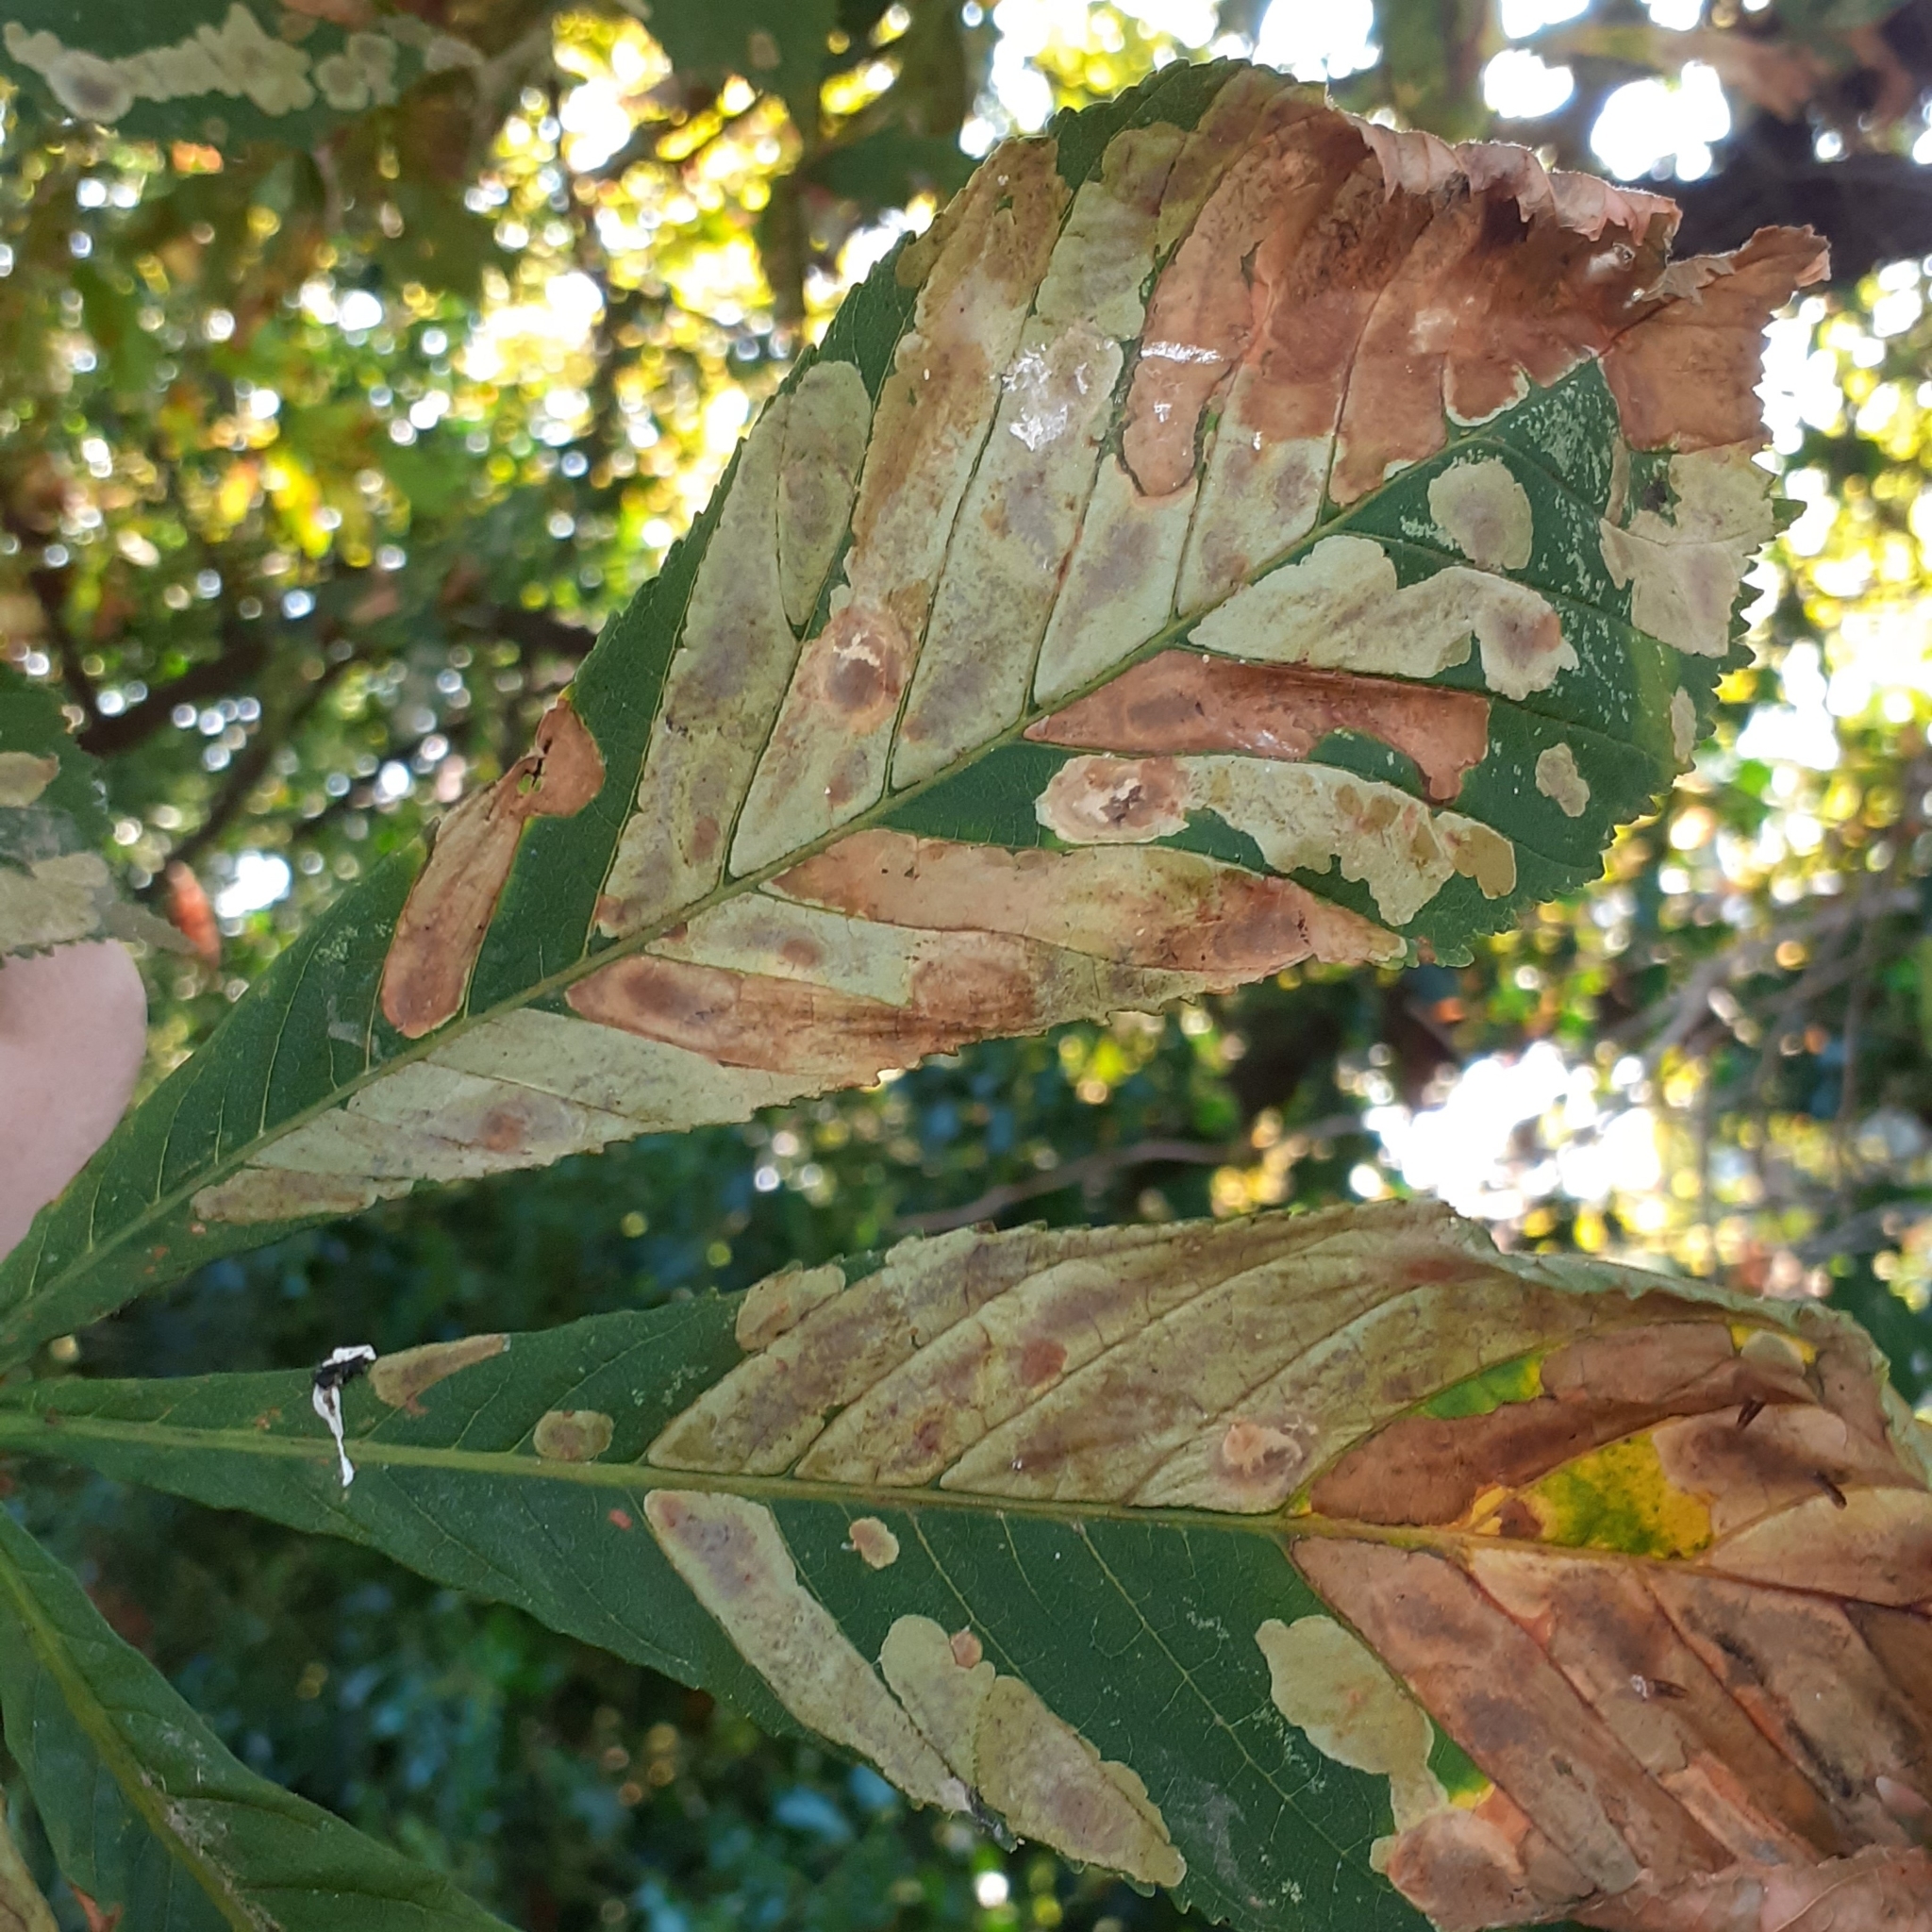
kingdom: Animalia
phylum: Arthropoda
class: Insecta
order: Lepidoptera
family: Gracillariidae
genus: Cameraria
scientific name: Cameraria ohridella
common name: Horse-chestnut leaf-miner
